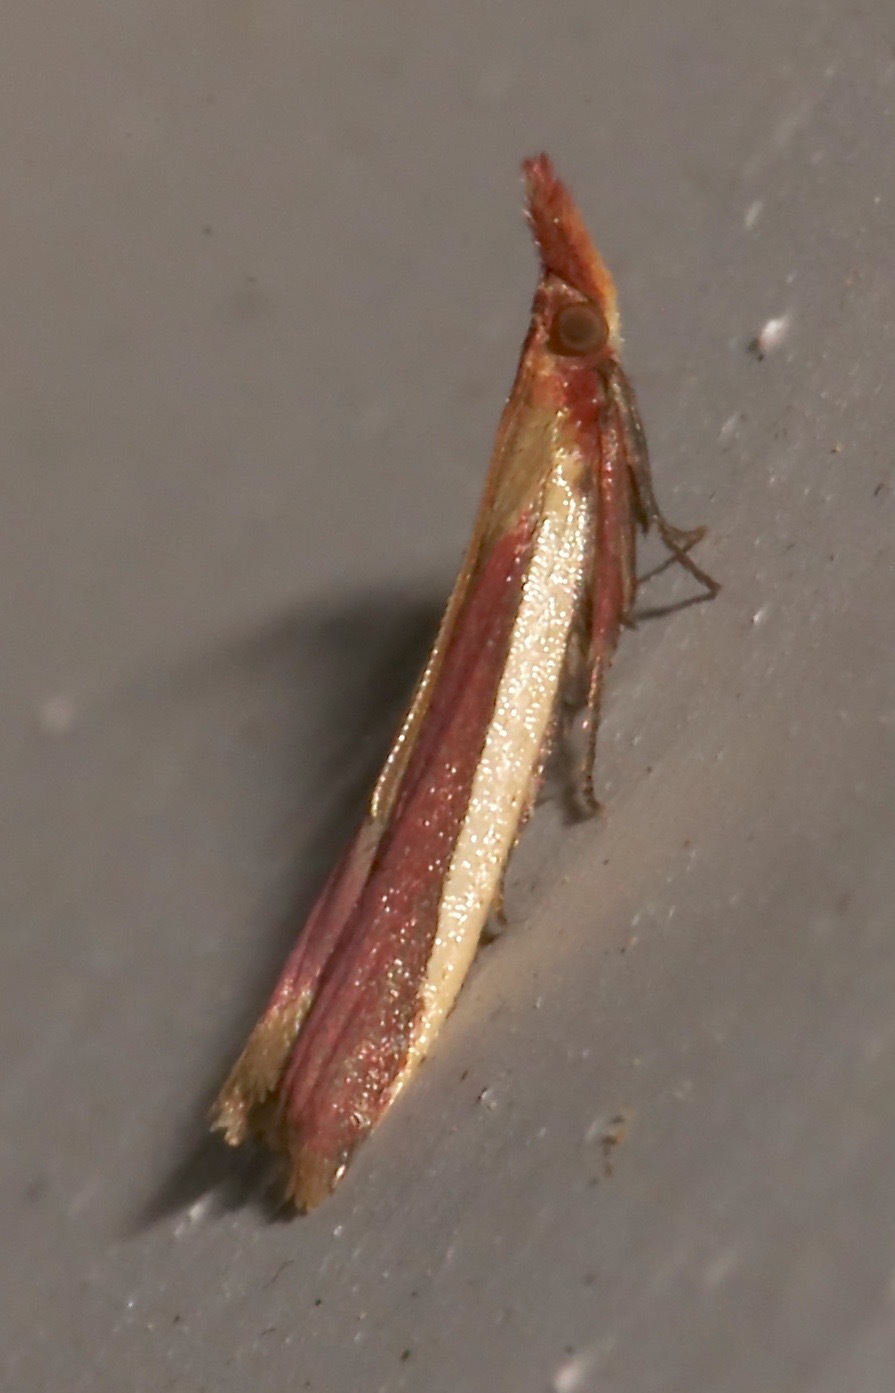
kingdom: Animalia
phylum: Arthropoda
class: Insecta
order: Lepidoptera
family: Pyralidae
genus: Peoria
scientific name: Peoria approximella
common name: Carmine snout
